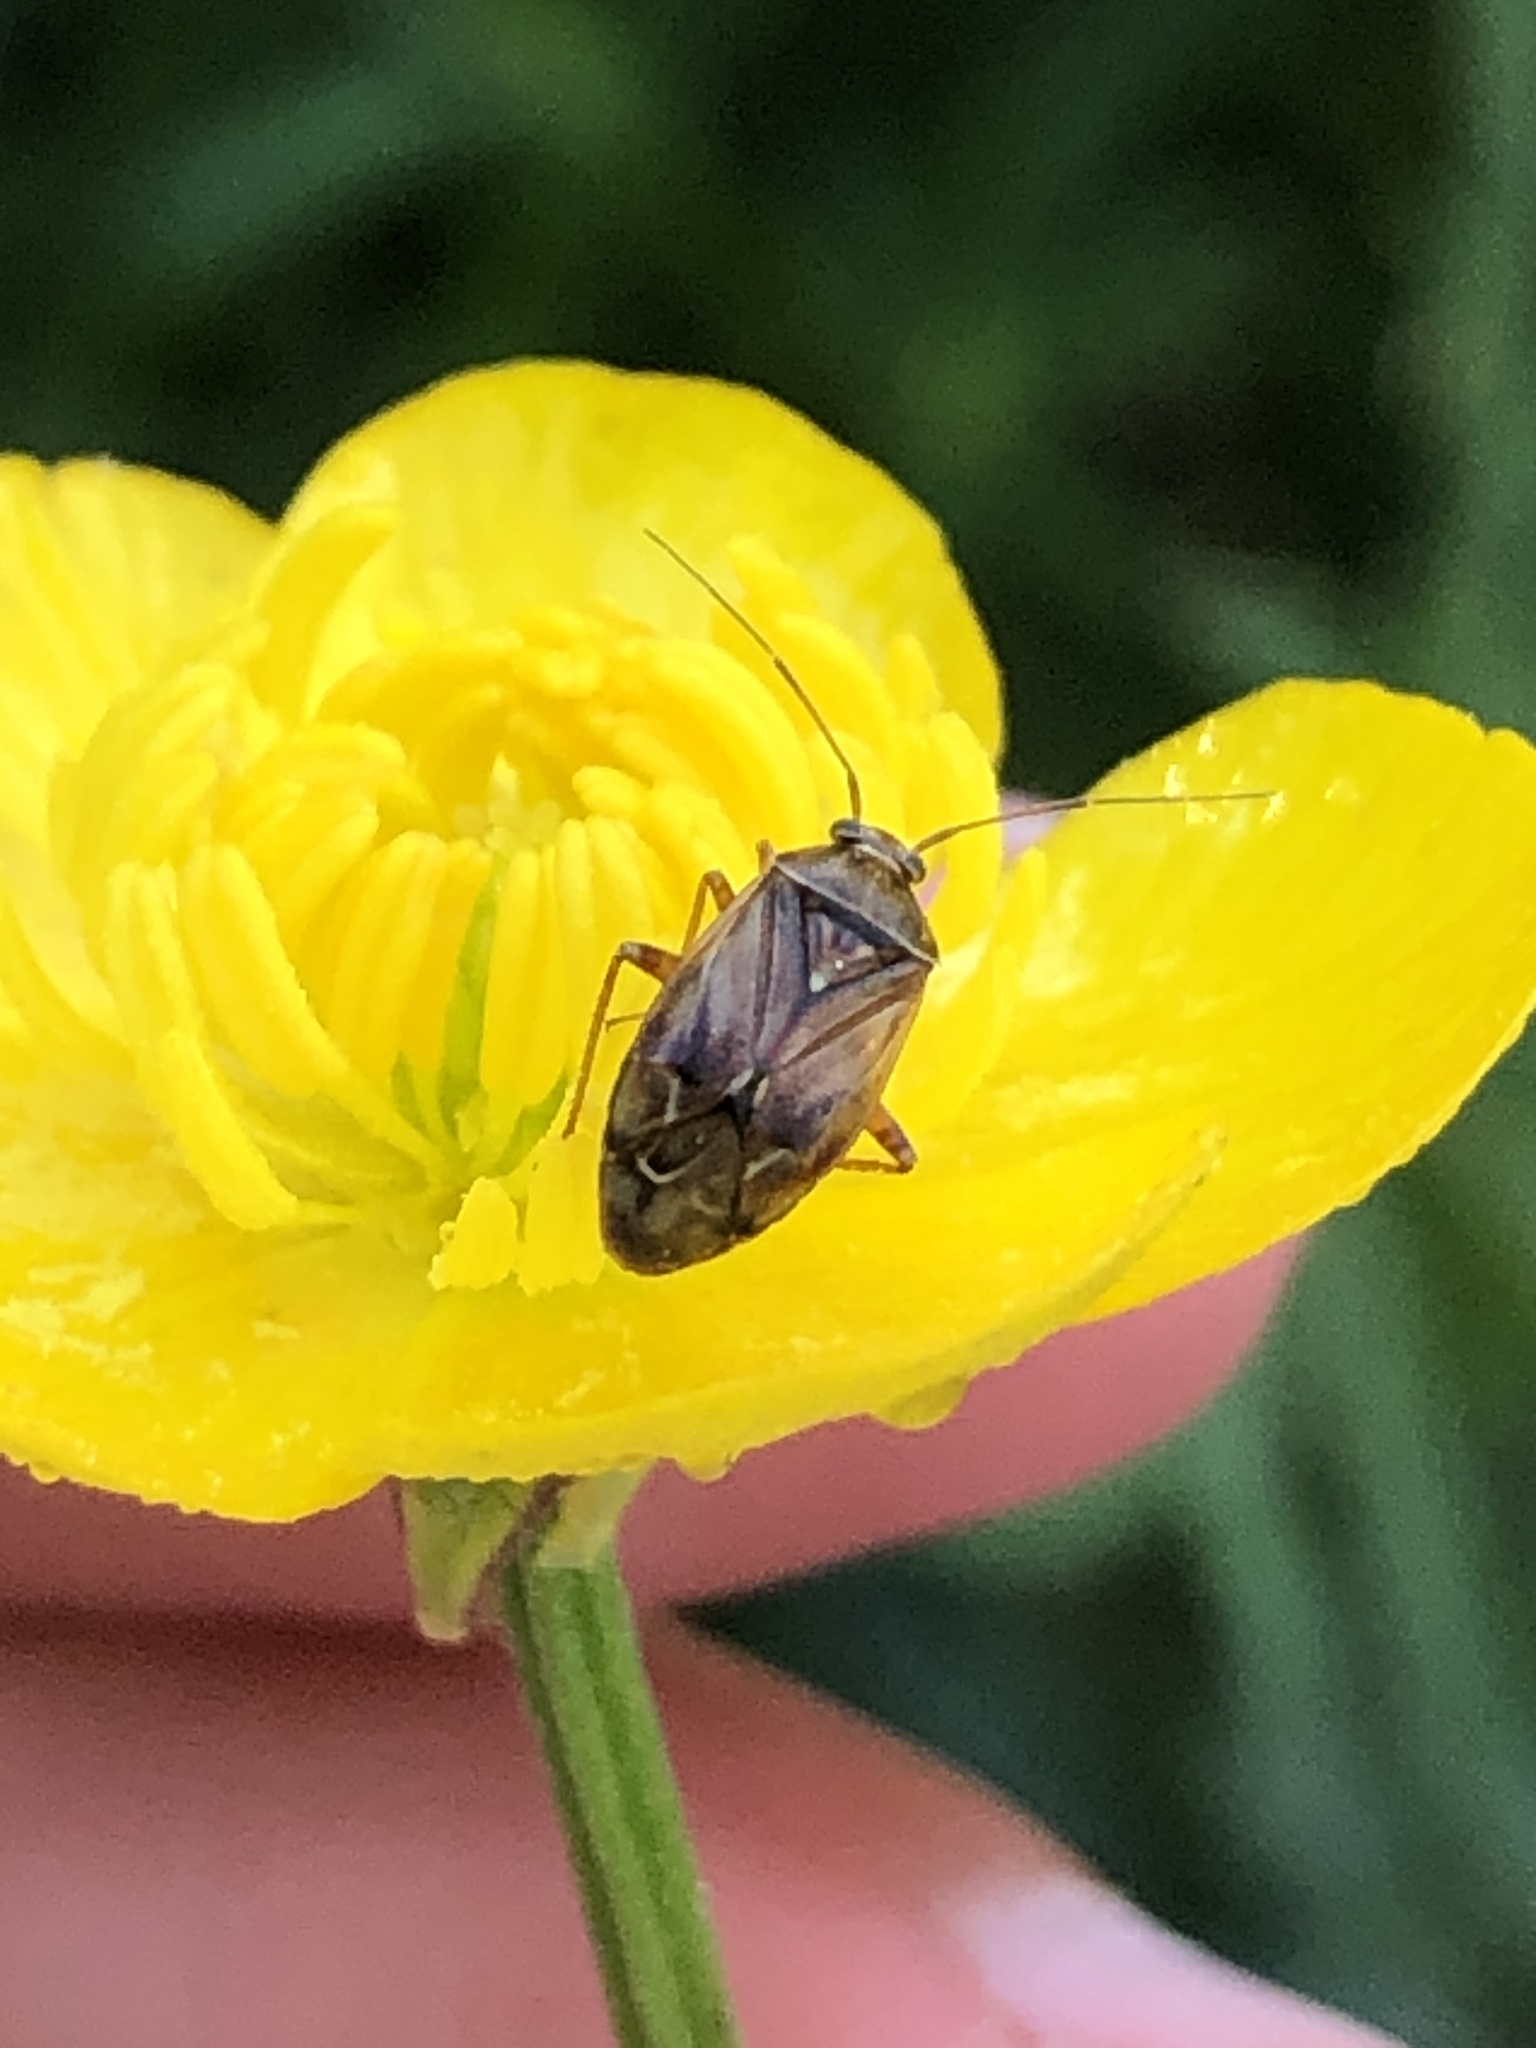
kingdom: Animalia
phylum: Arthropoda
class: Insecta
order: Hemiptera
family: Miridae
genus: Lygus
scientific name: Lygus lineolaris
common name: North american tarnished plant bug
